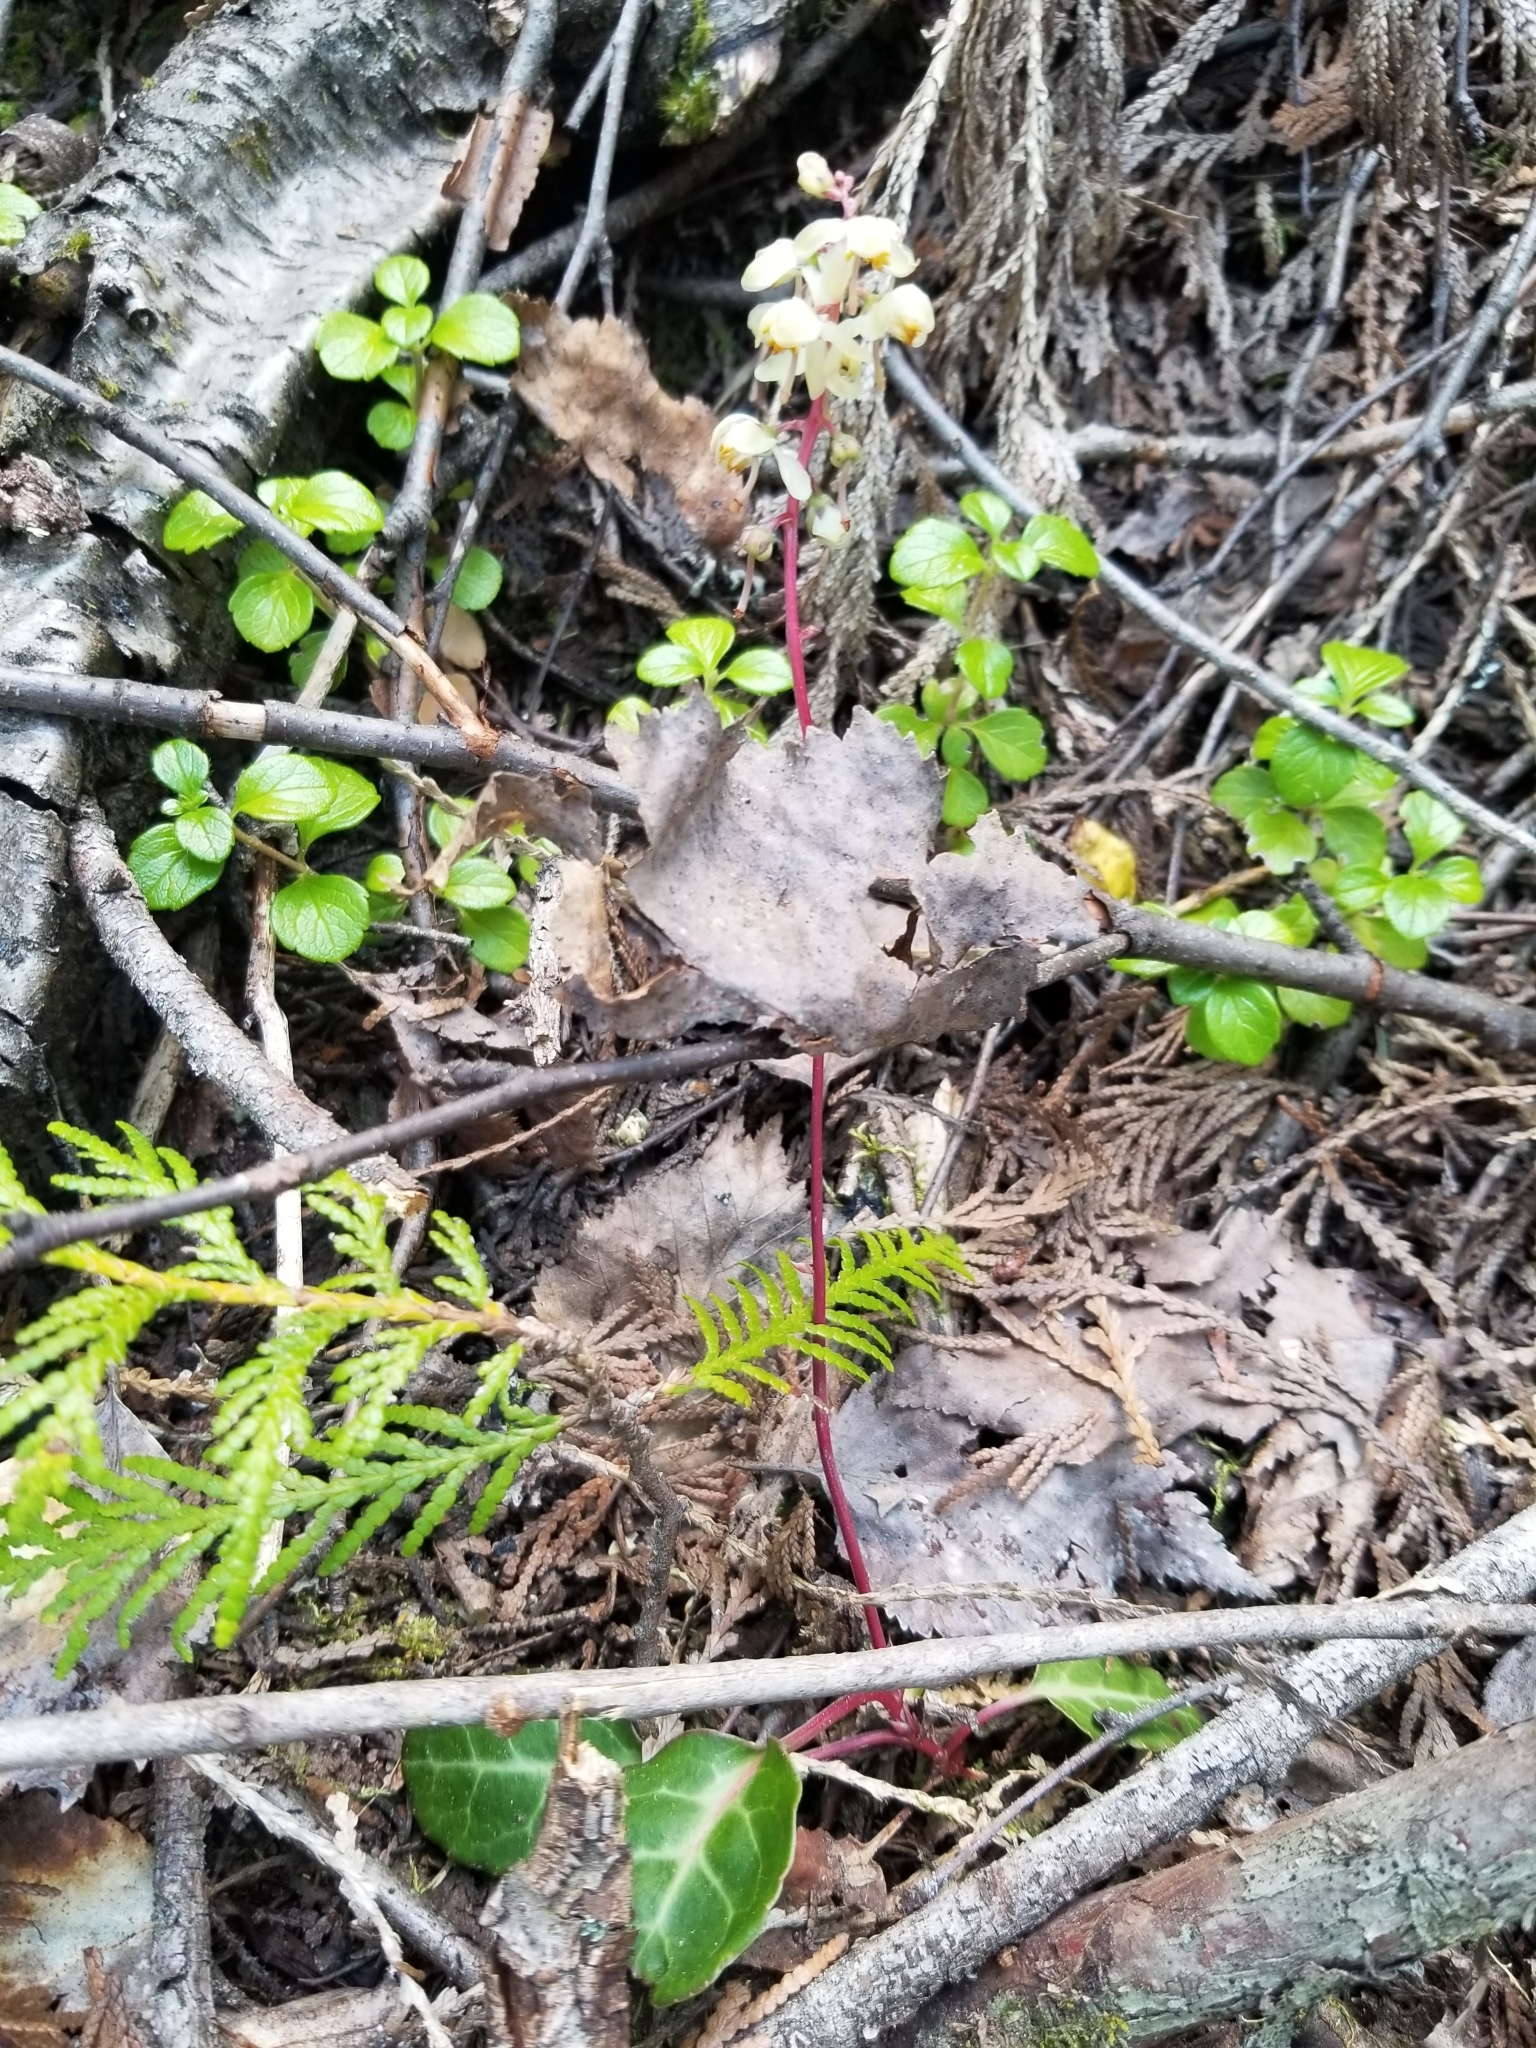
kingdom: Plantae
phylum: Tracheophyta
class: Magnoliopsida
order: Ericales
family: Ericaceae
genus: Pyrola
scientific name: Pyrola picta
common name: White-vein wintergreen
